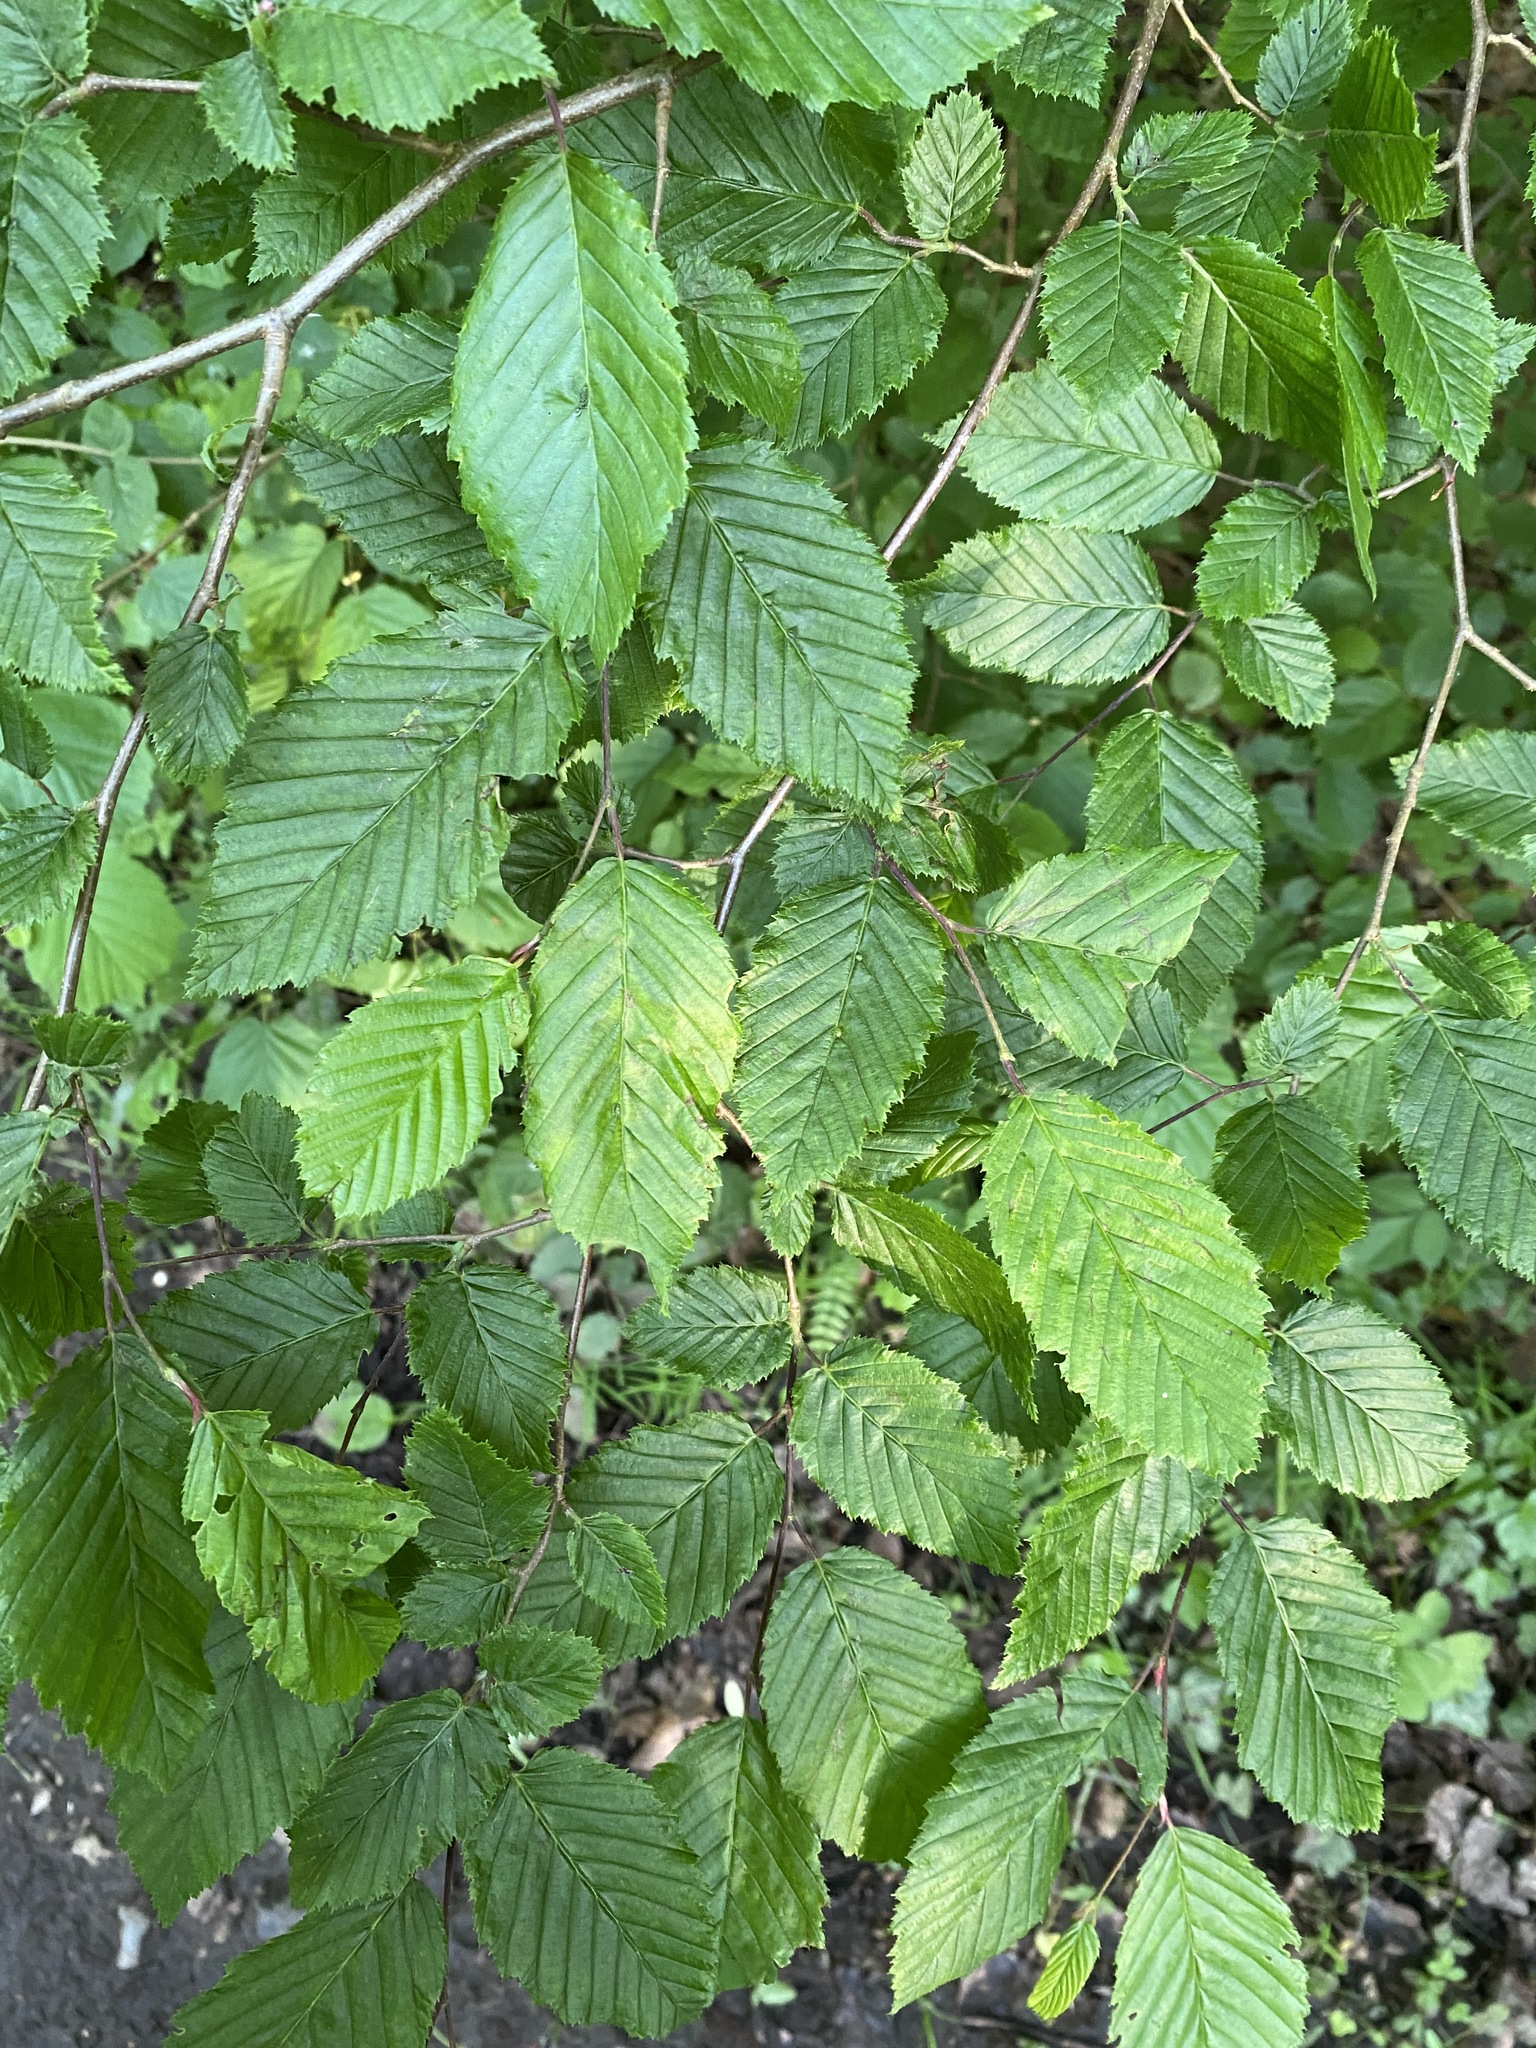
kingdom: Plantae
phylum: Tracheophyta
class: Magnoliopsida
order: Fagales
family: Betulaceae
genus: Carpinus
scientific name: Carpinus betulus
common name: Hornbeam
